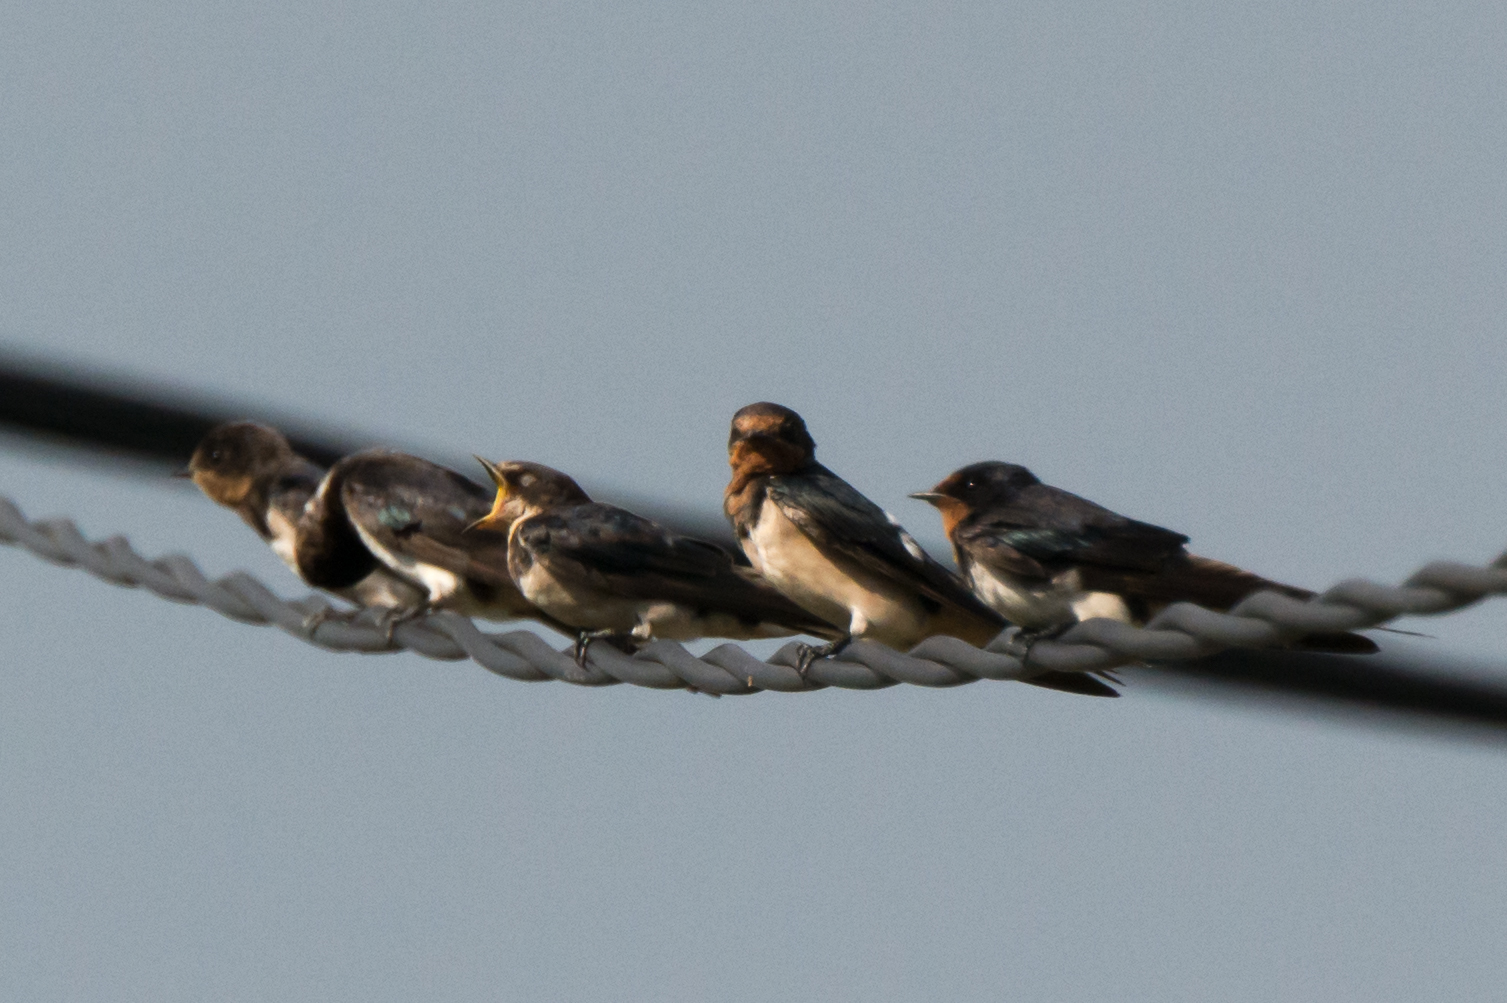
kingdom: Animalia
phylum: Chordata
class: Aves
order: Passeriformes
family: Hirundinidae
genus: Hirundo
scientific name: Hirundo tahitica
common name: Pacific swallow
